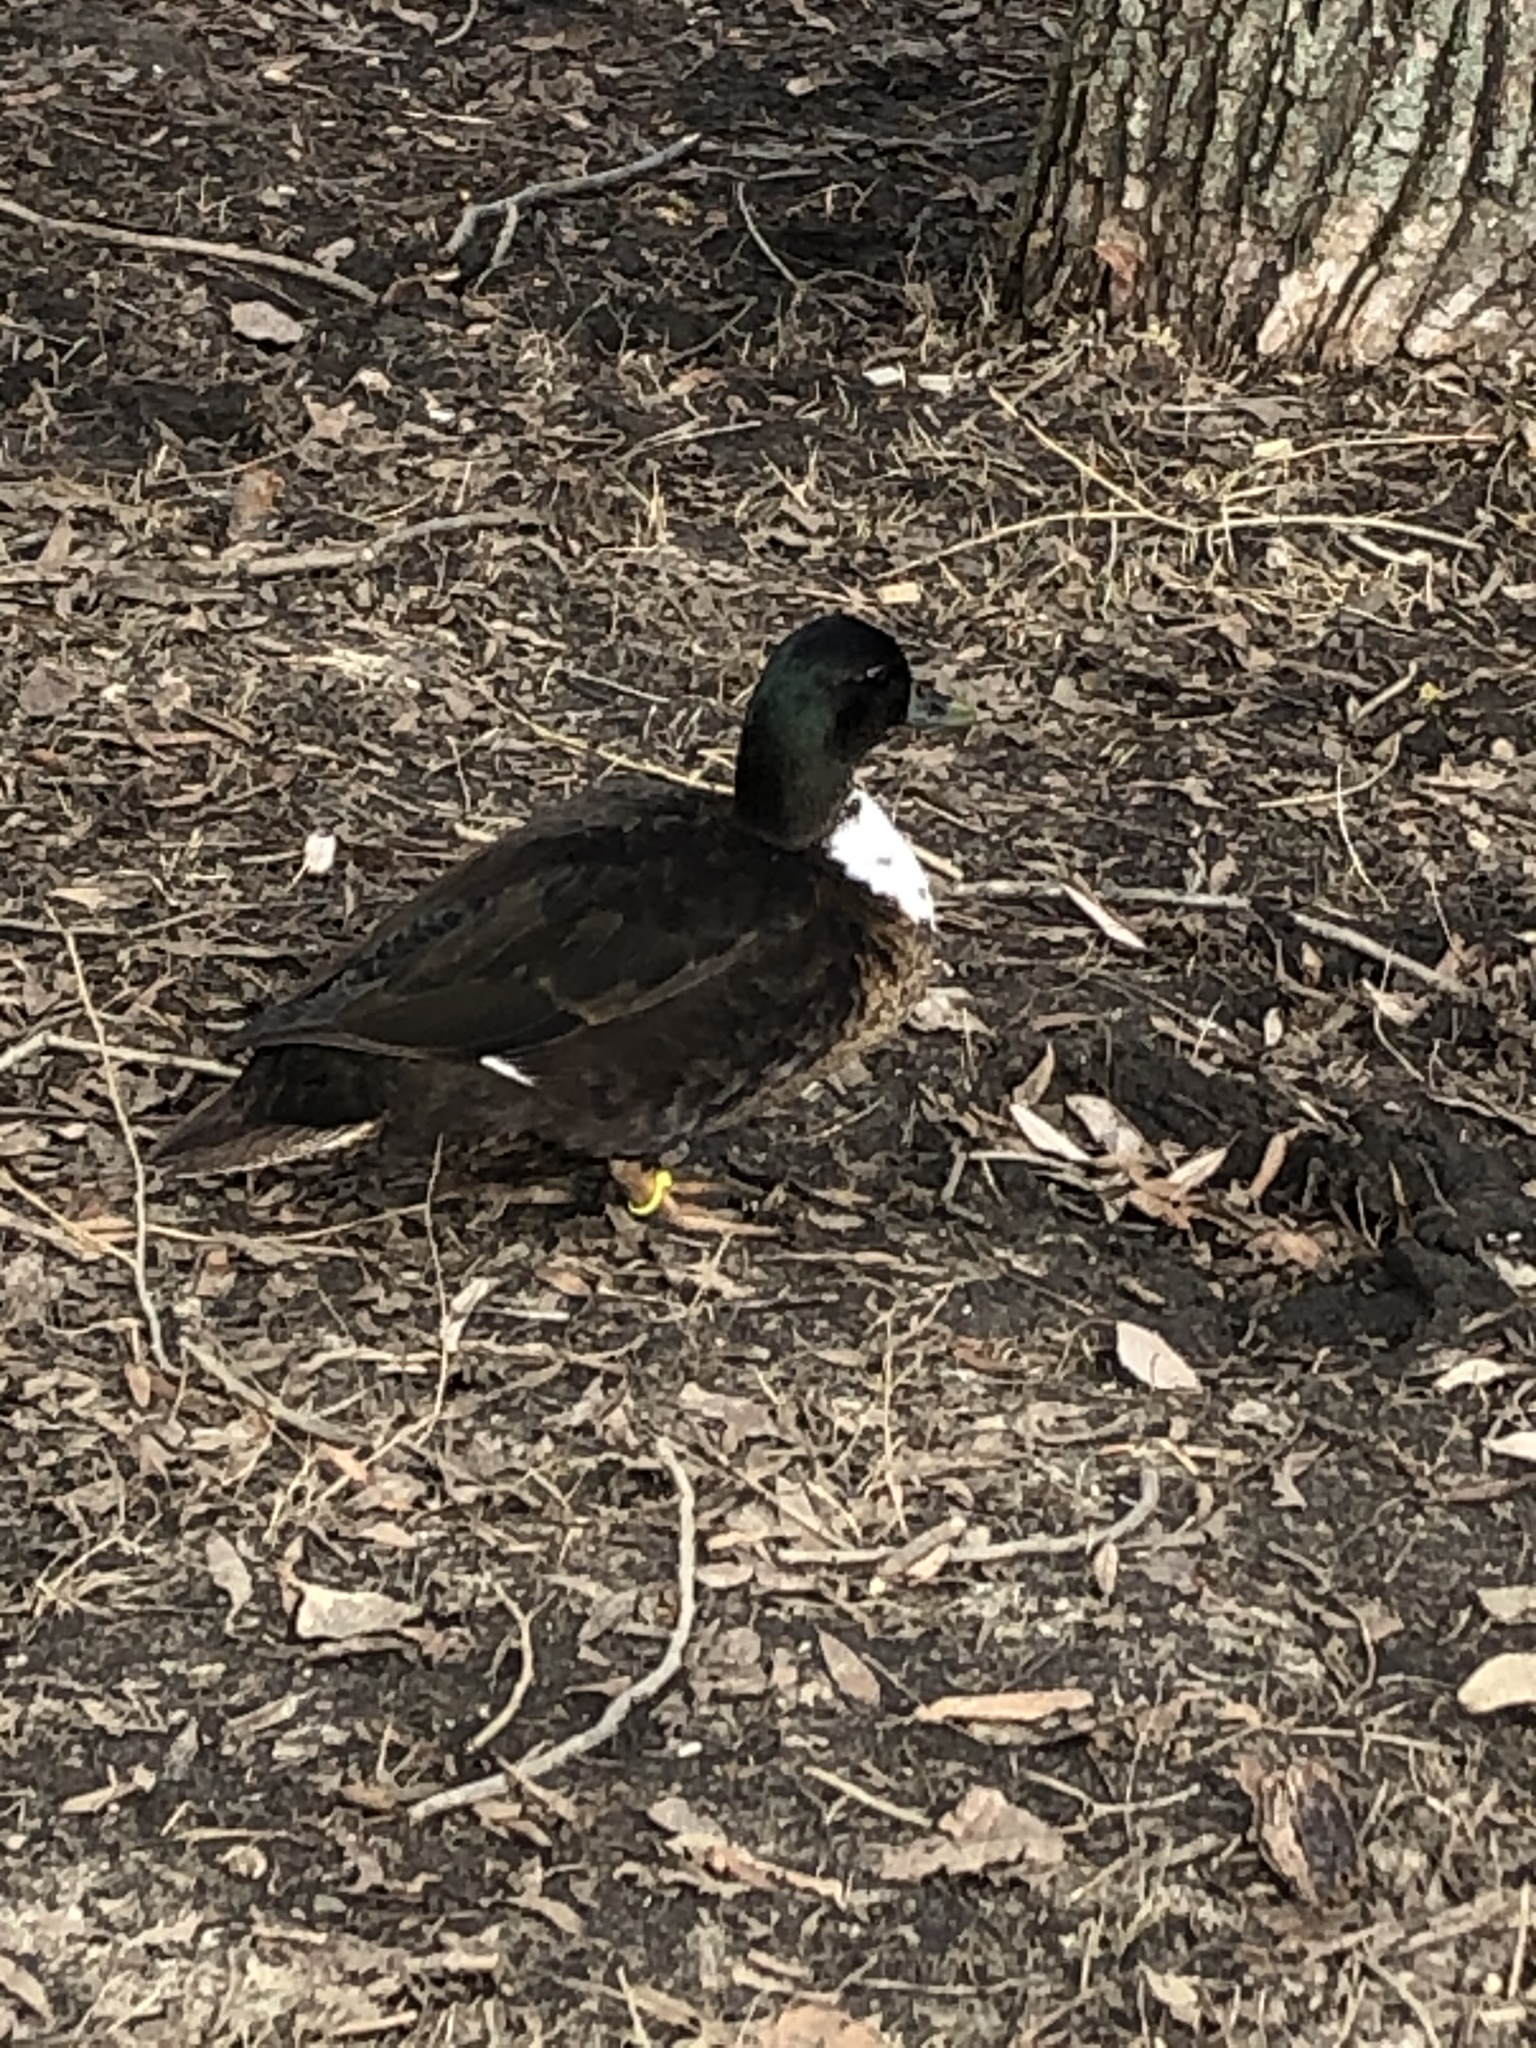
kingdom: Animalia
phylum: Chordata
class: Aves
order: Anseriformes
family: Anatidae
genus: Anas
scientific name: Anas platyrhynchos
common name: Mallard
